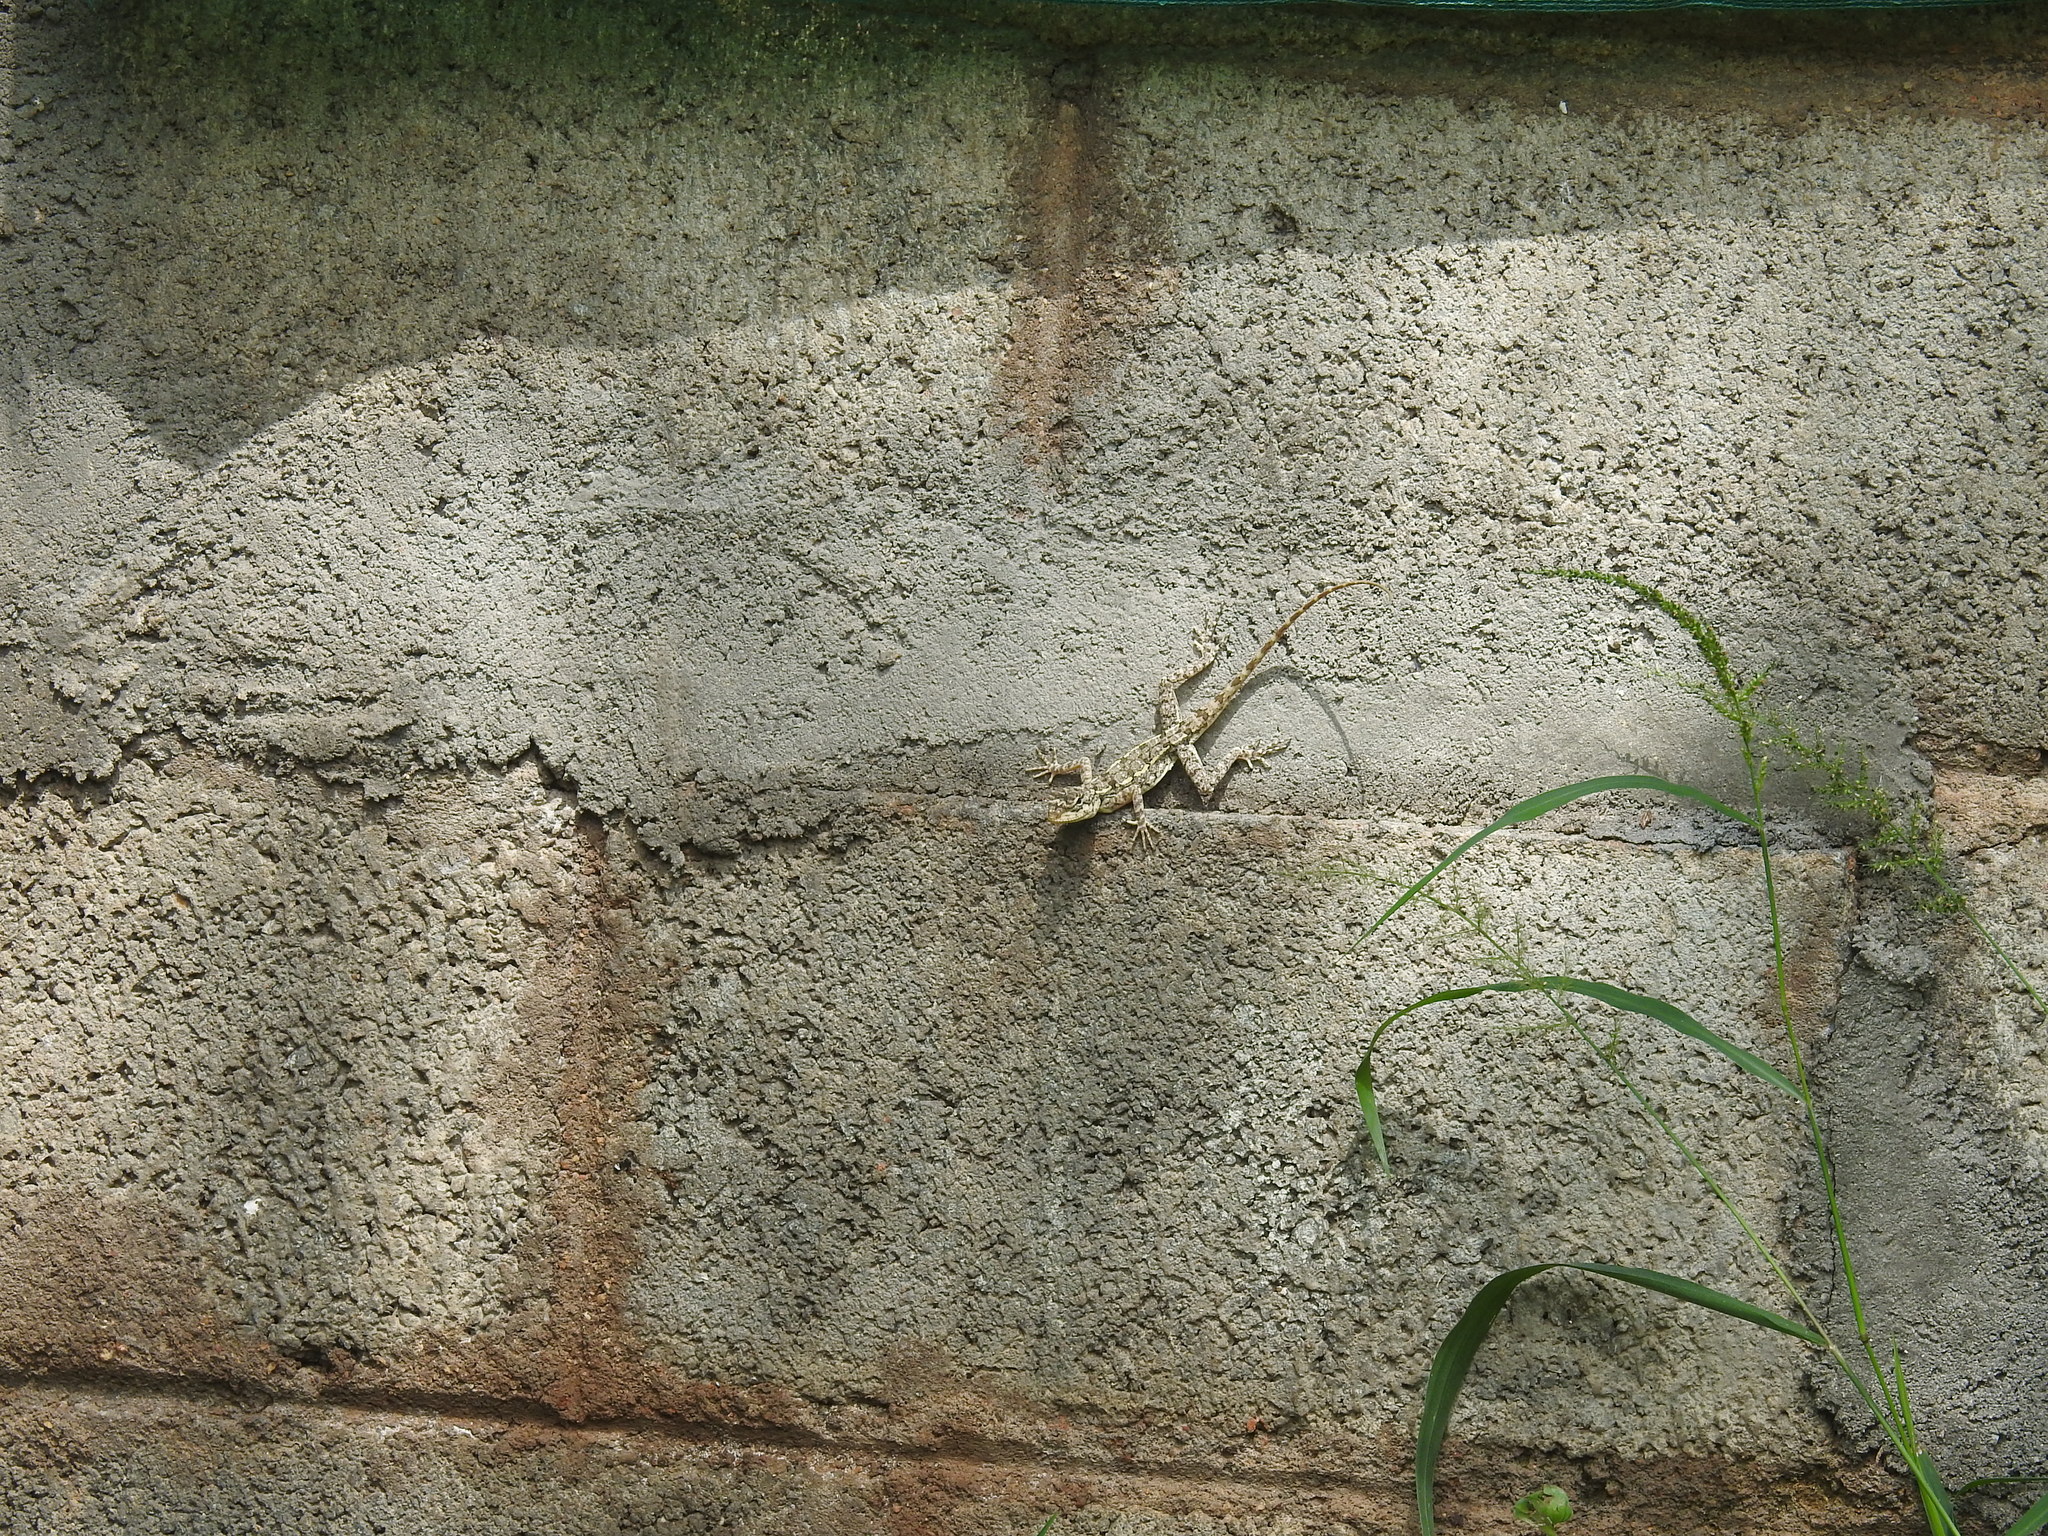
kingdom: Animalia
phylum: Chordata
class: Squamata
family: Agamidae
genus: Psammophilus
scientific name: Psammophilus dorsalis
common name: South indian rock agama
